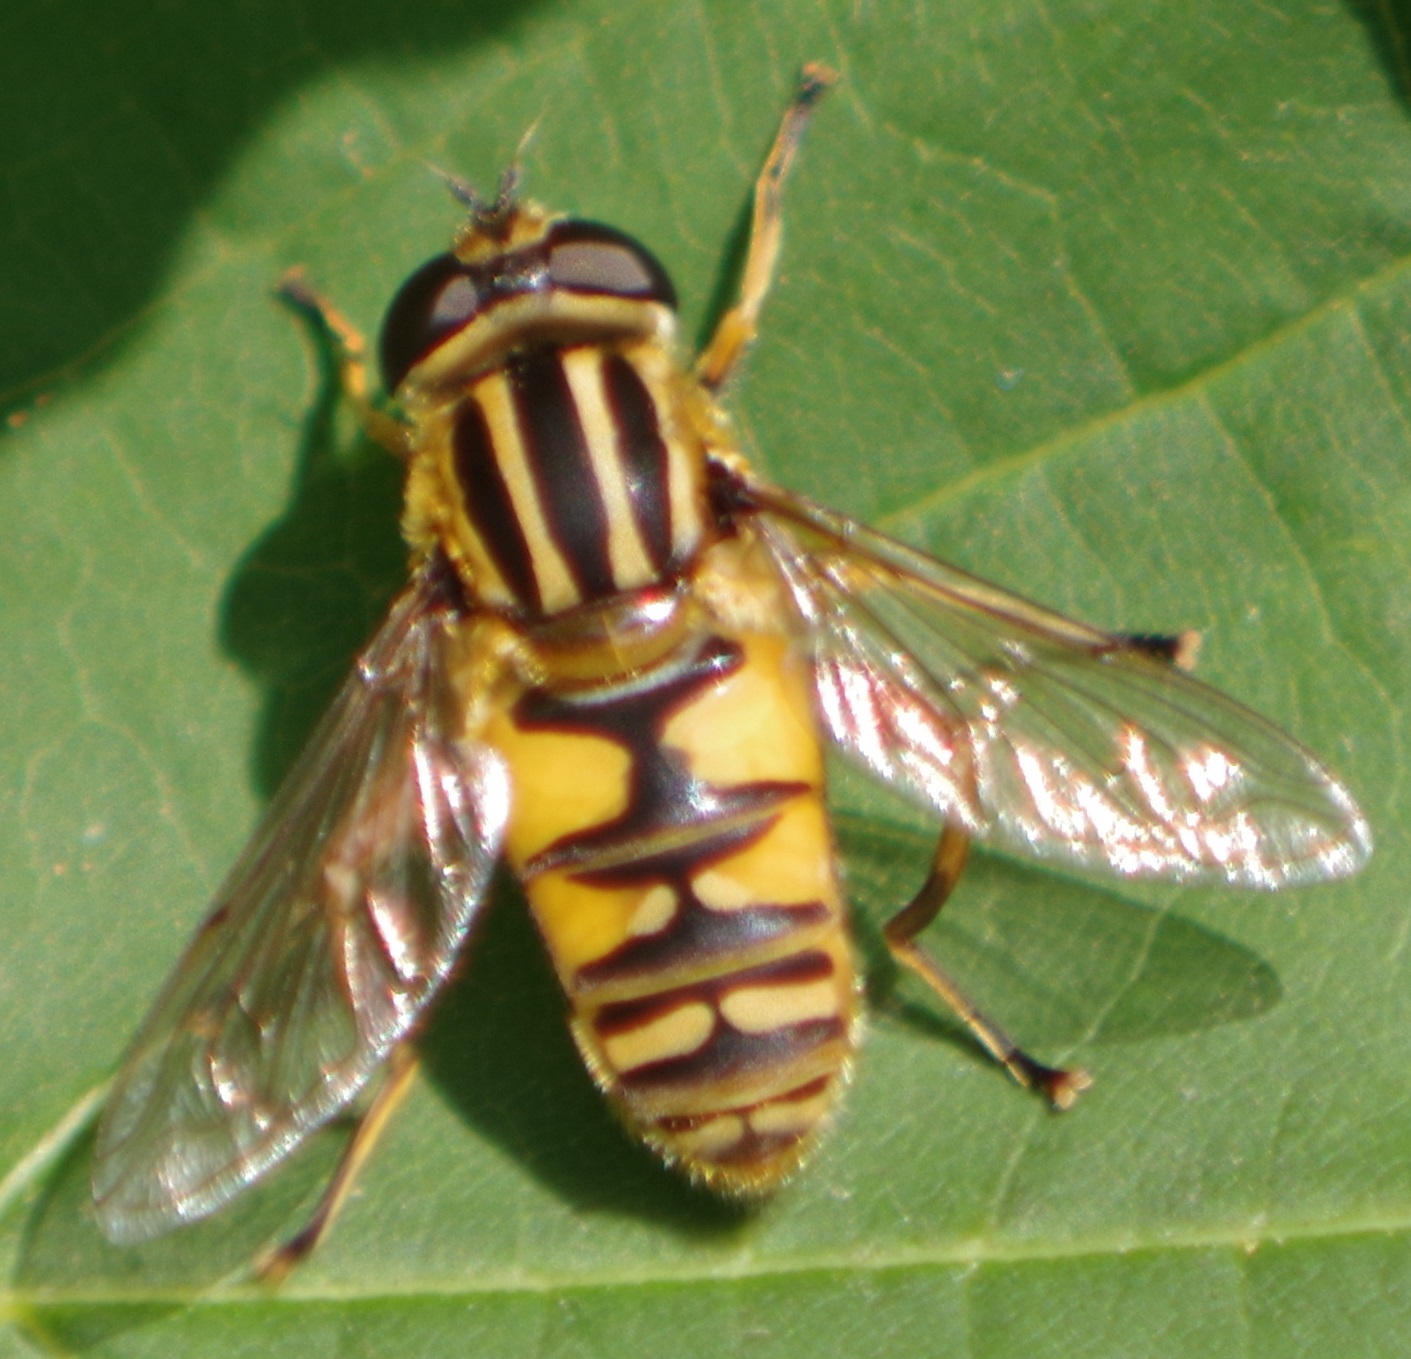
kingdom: Animalia
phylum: Arthropoda
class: Insecta
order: Diptera
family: Syrphidae
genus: Helophilus
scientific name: Helophilus pendulus
